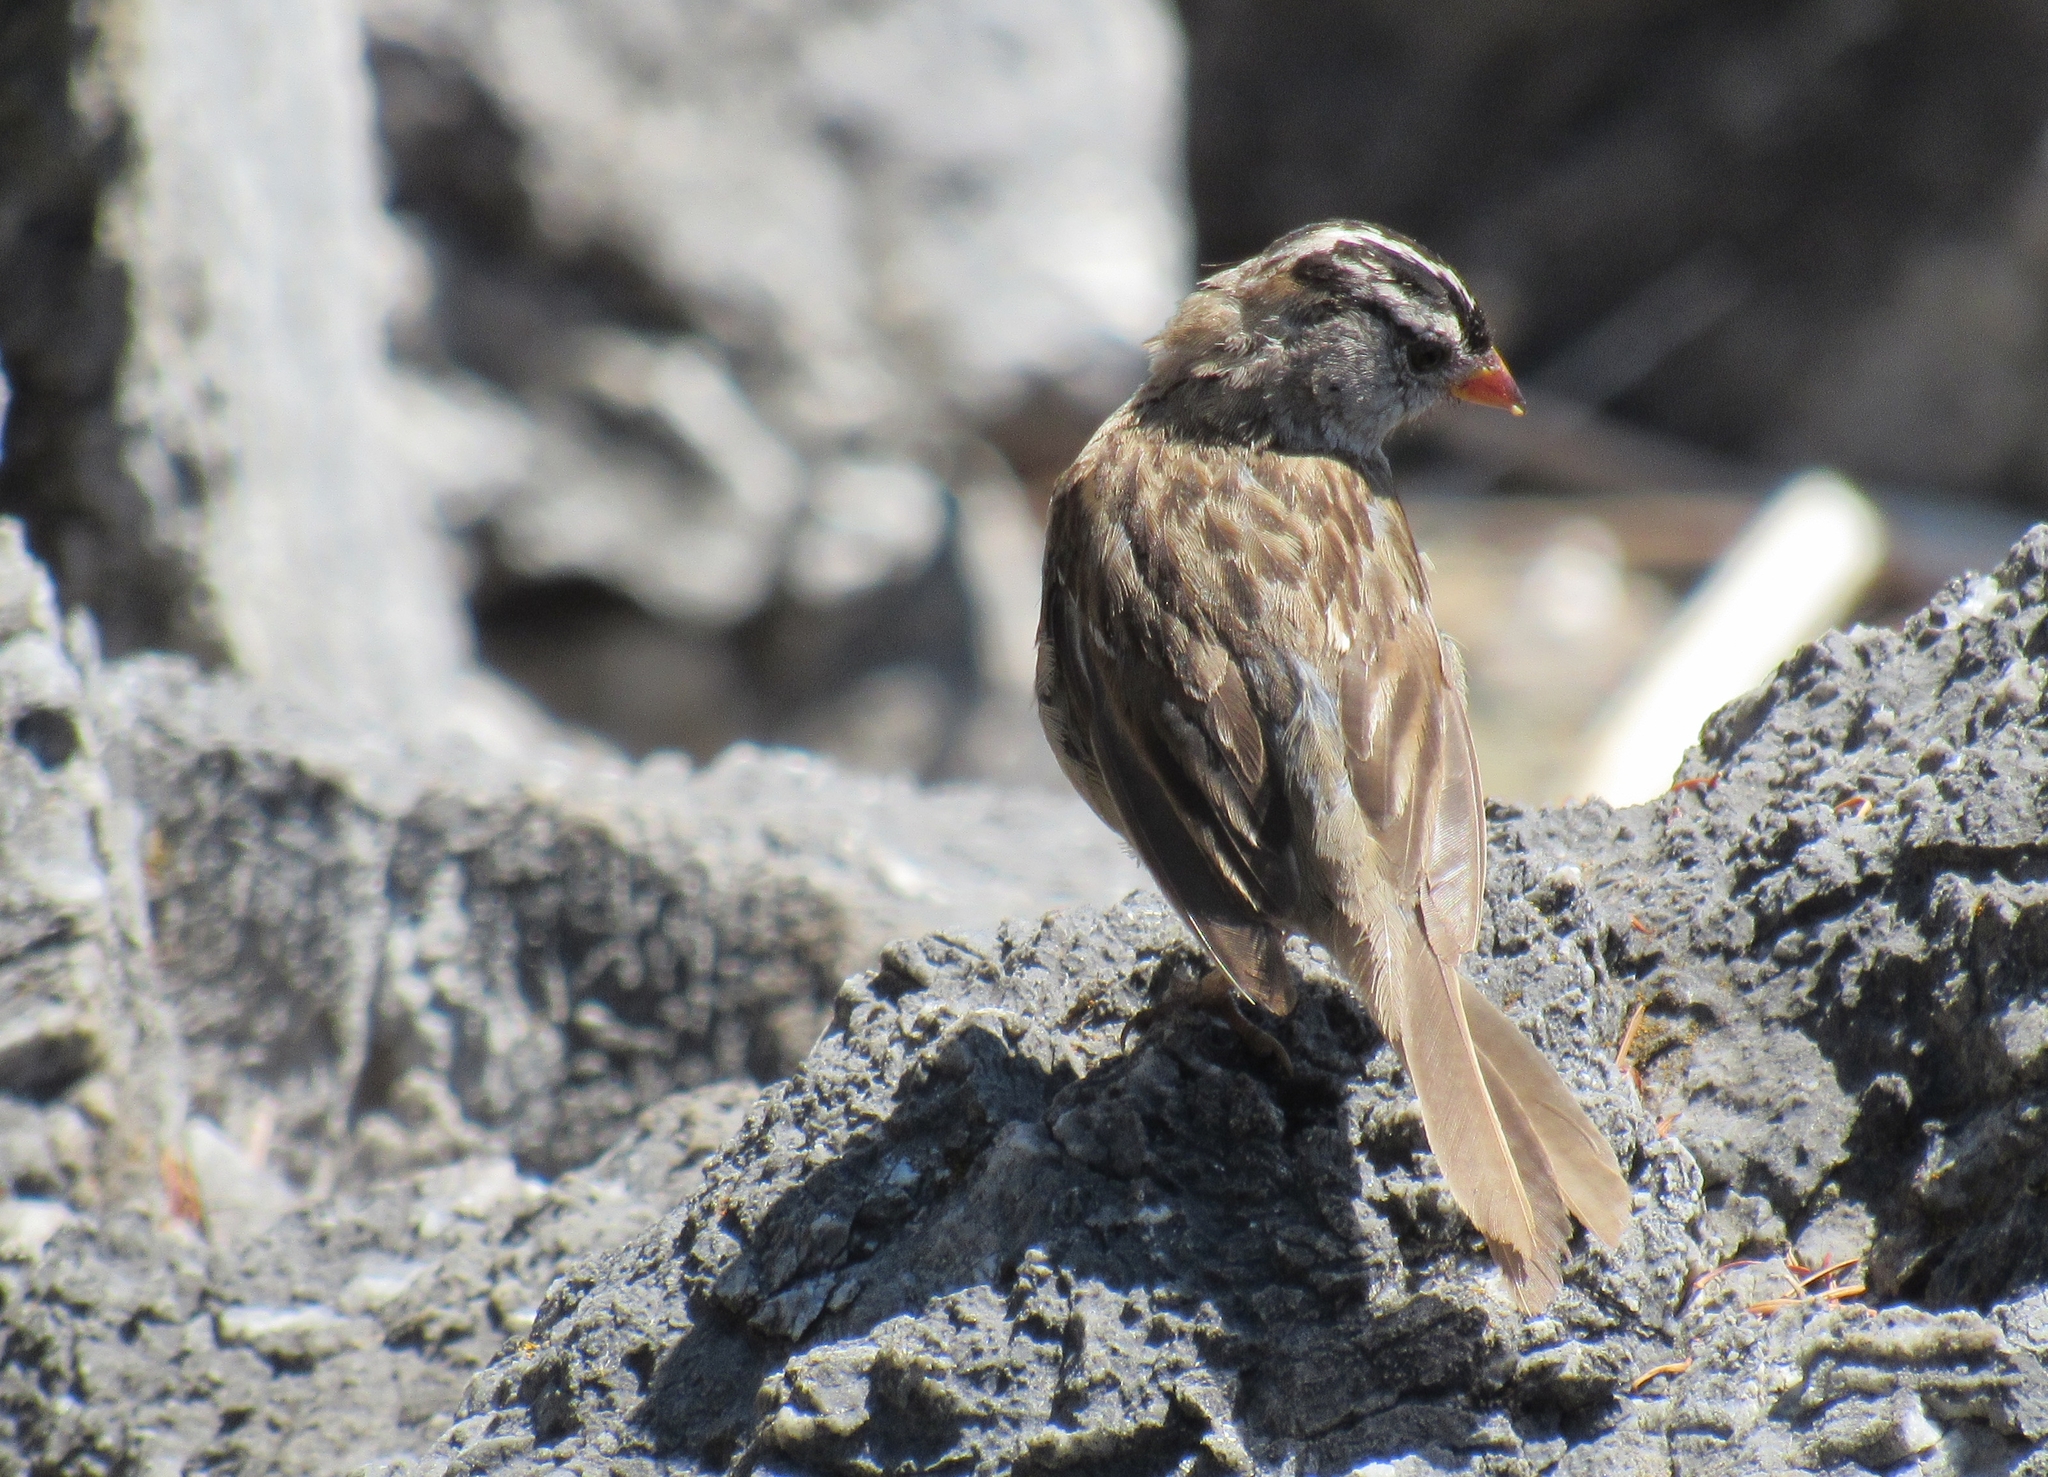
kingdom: Animalia
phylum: Chordata
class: Aves
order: Passeriformes
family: Passerellidae
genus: Zonotrichia
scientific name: Zonotrichia leucophrys
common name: White-crowned sparrow
